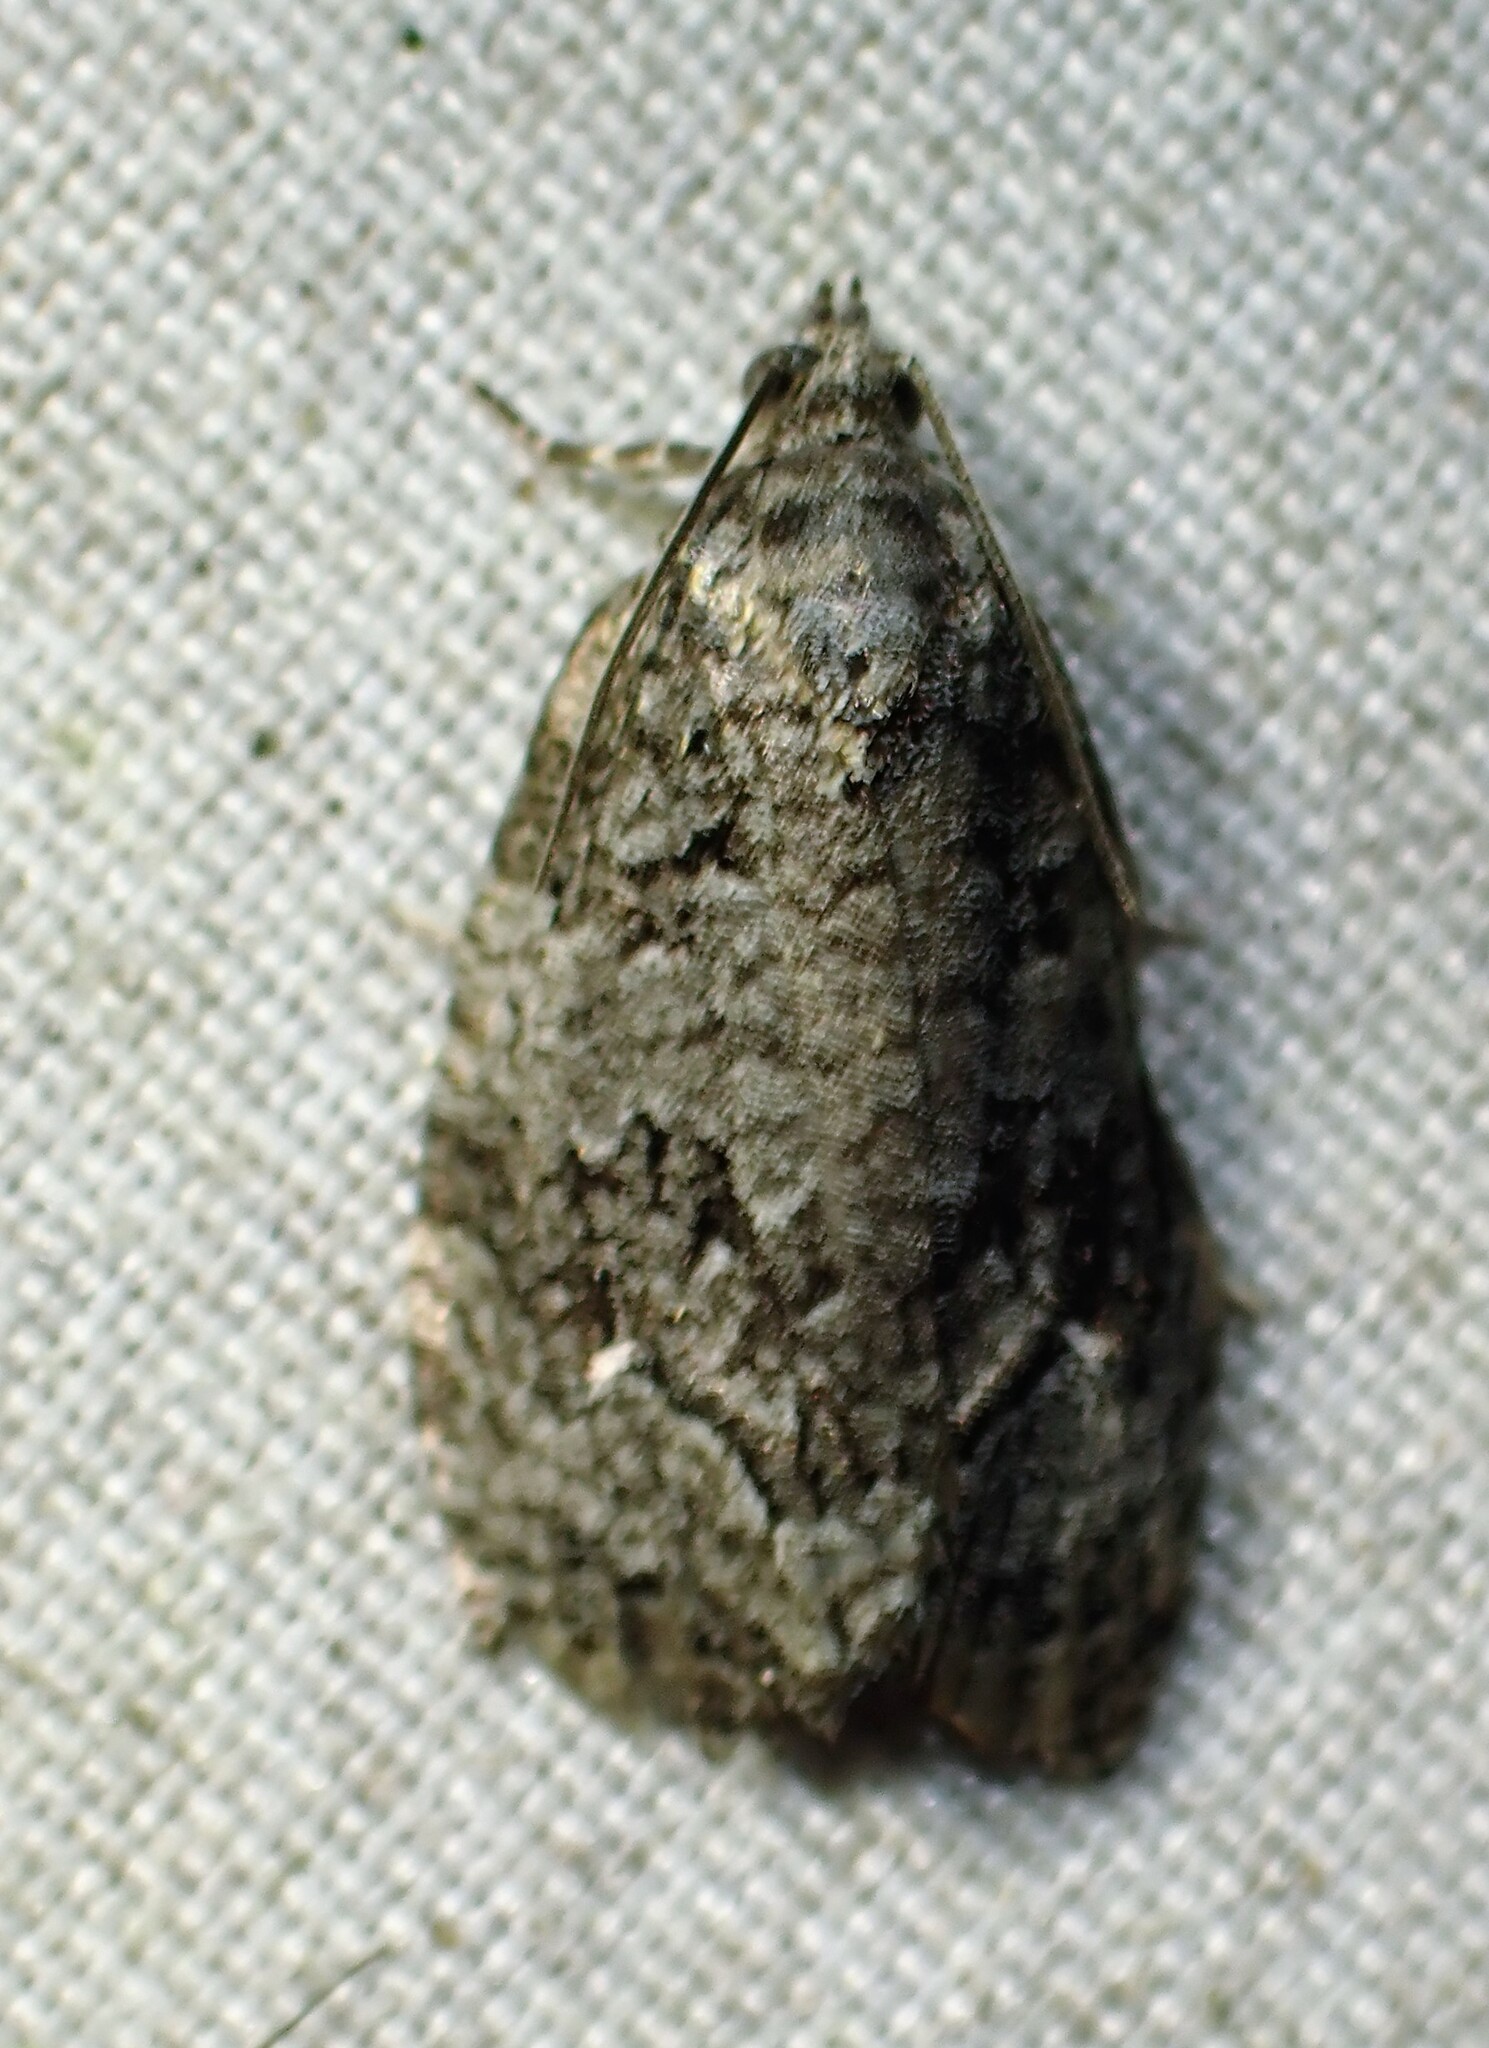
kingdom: Animalia
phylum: Arthropoda
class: Insecta
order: Lepidoptera
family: Tortricidae
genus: Apotomis
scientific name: Apotomis removana
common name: Green aspen leafroller
